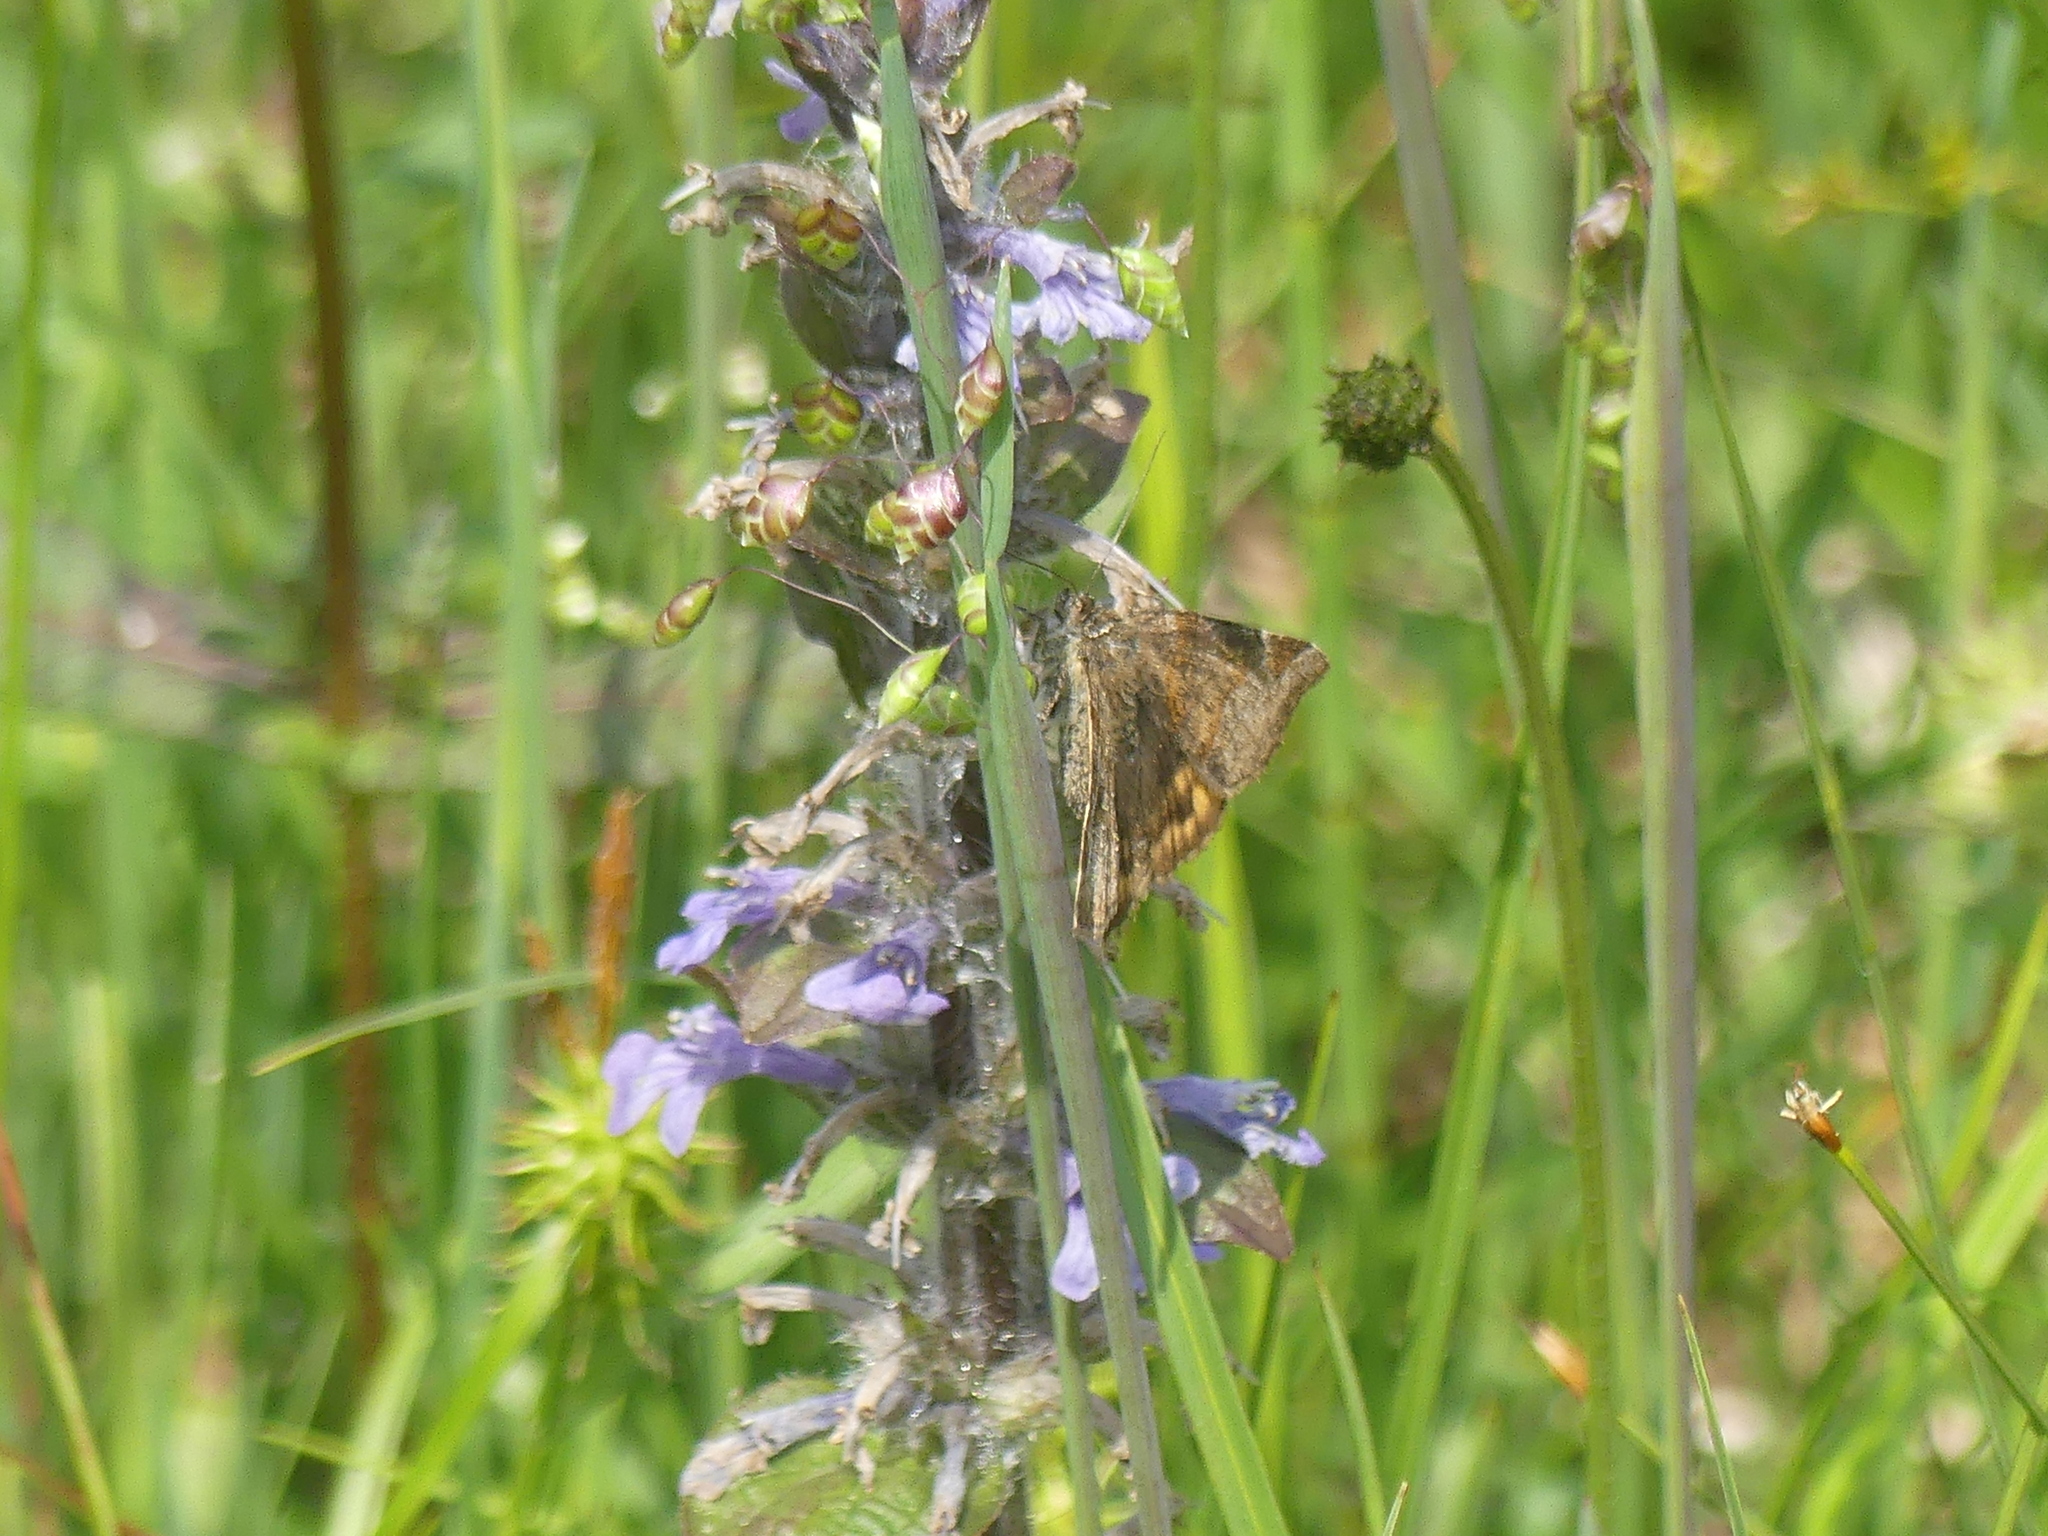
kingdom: Animalia
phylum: Arthropoda
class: Insecta
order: Lepidoptera
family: Erebidae
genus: Euclidia
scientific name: Euclidia glyphica
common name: Burnet companion
